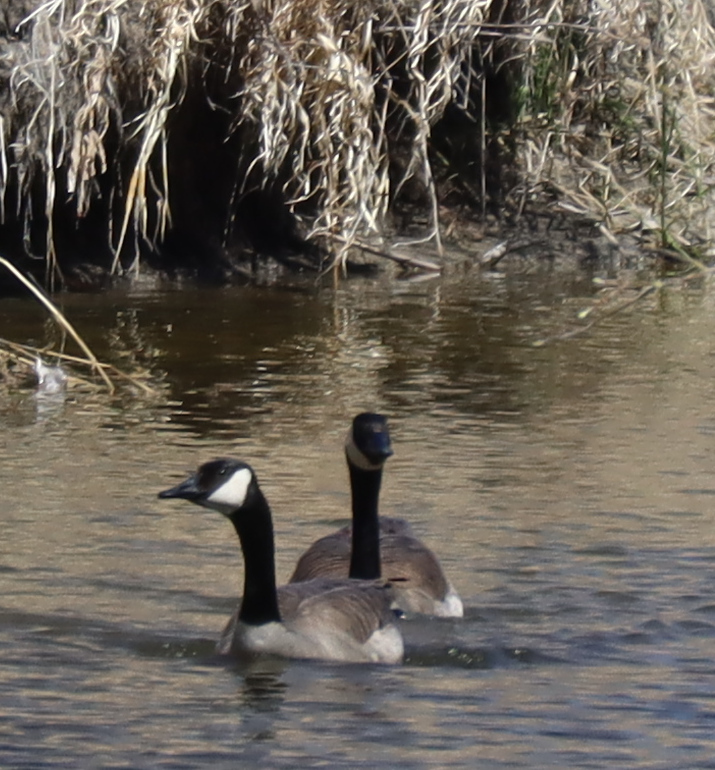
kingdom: Animalia
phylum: Chordata
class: Aves
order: Anseriformes
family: Anatidae
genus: Branta
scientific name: Branta canadensis
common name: Canada goose
